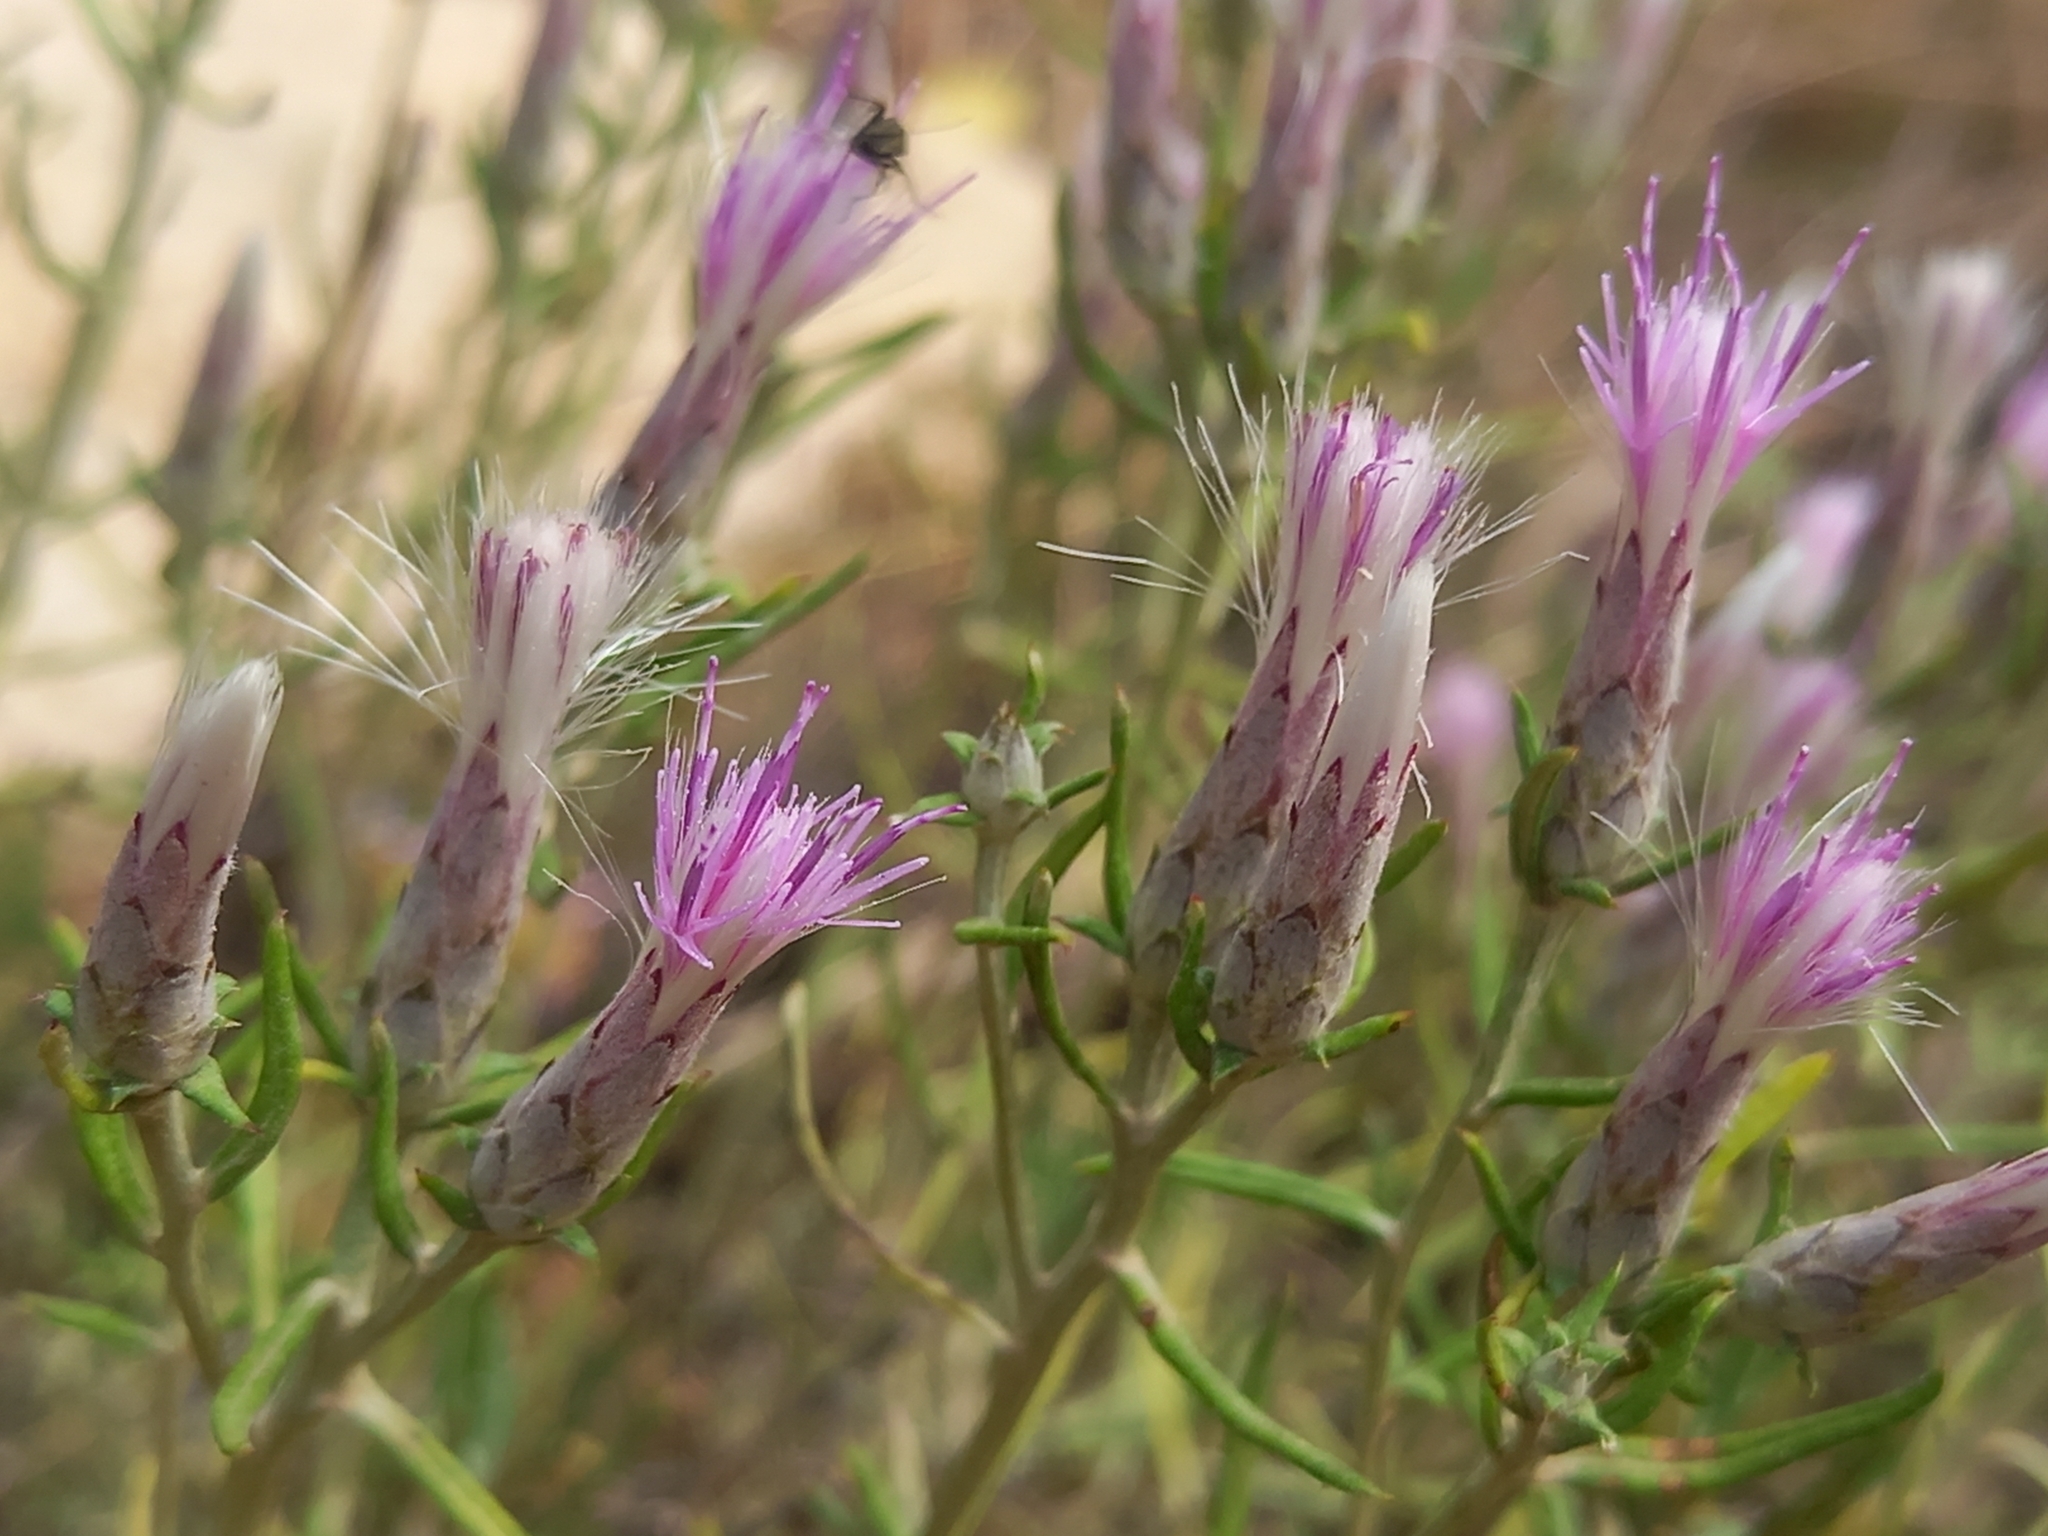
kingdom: Plantae
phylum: Tracheophyta
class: Magnoliopsida
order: Asterales
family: Asteraceae
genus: Staehelina
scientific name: Staehelina dubia
